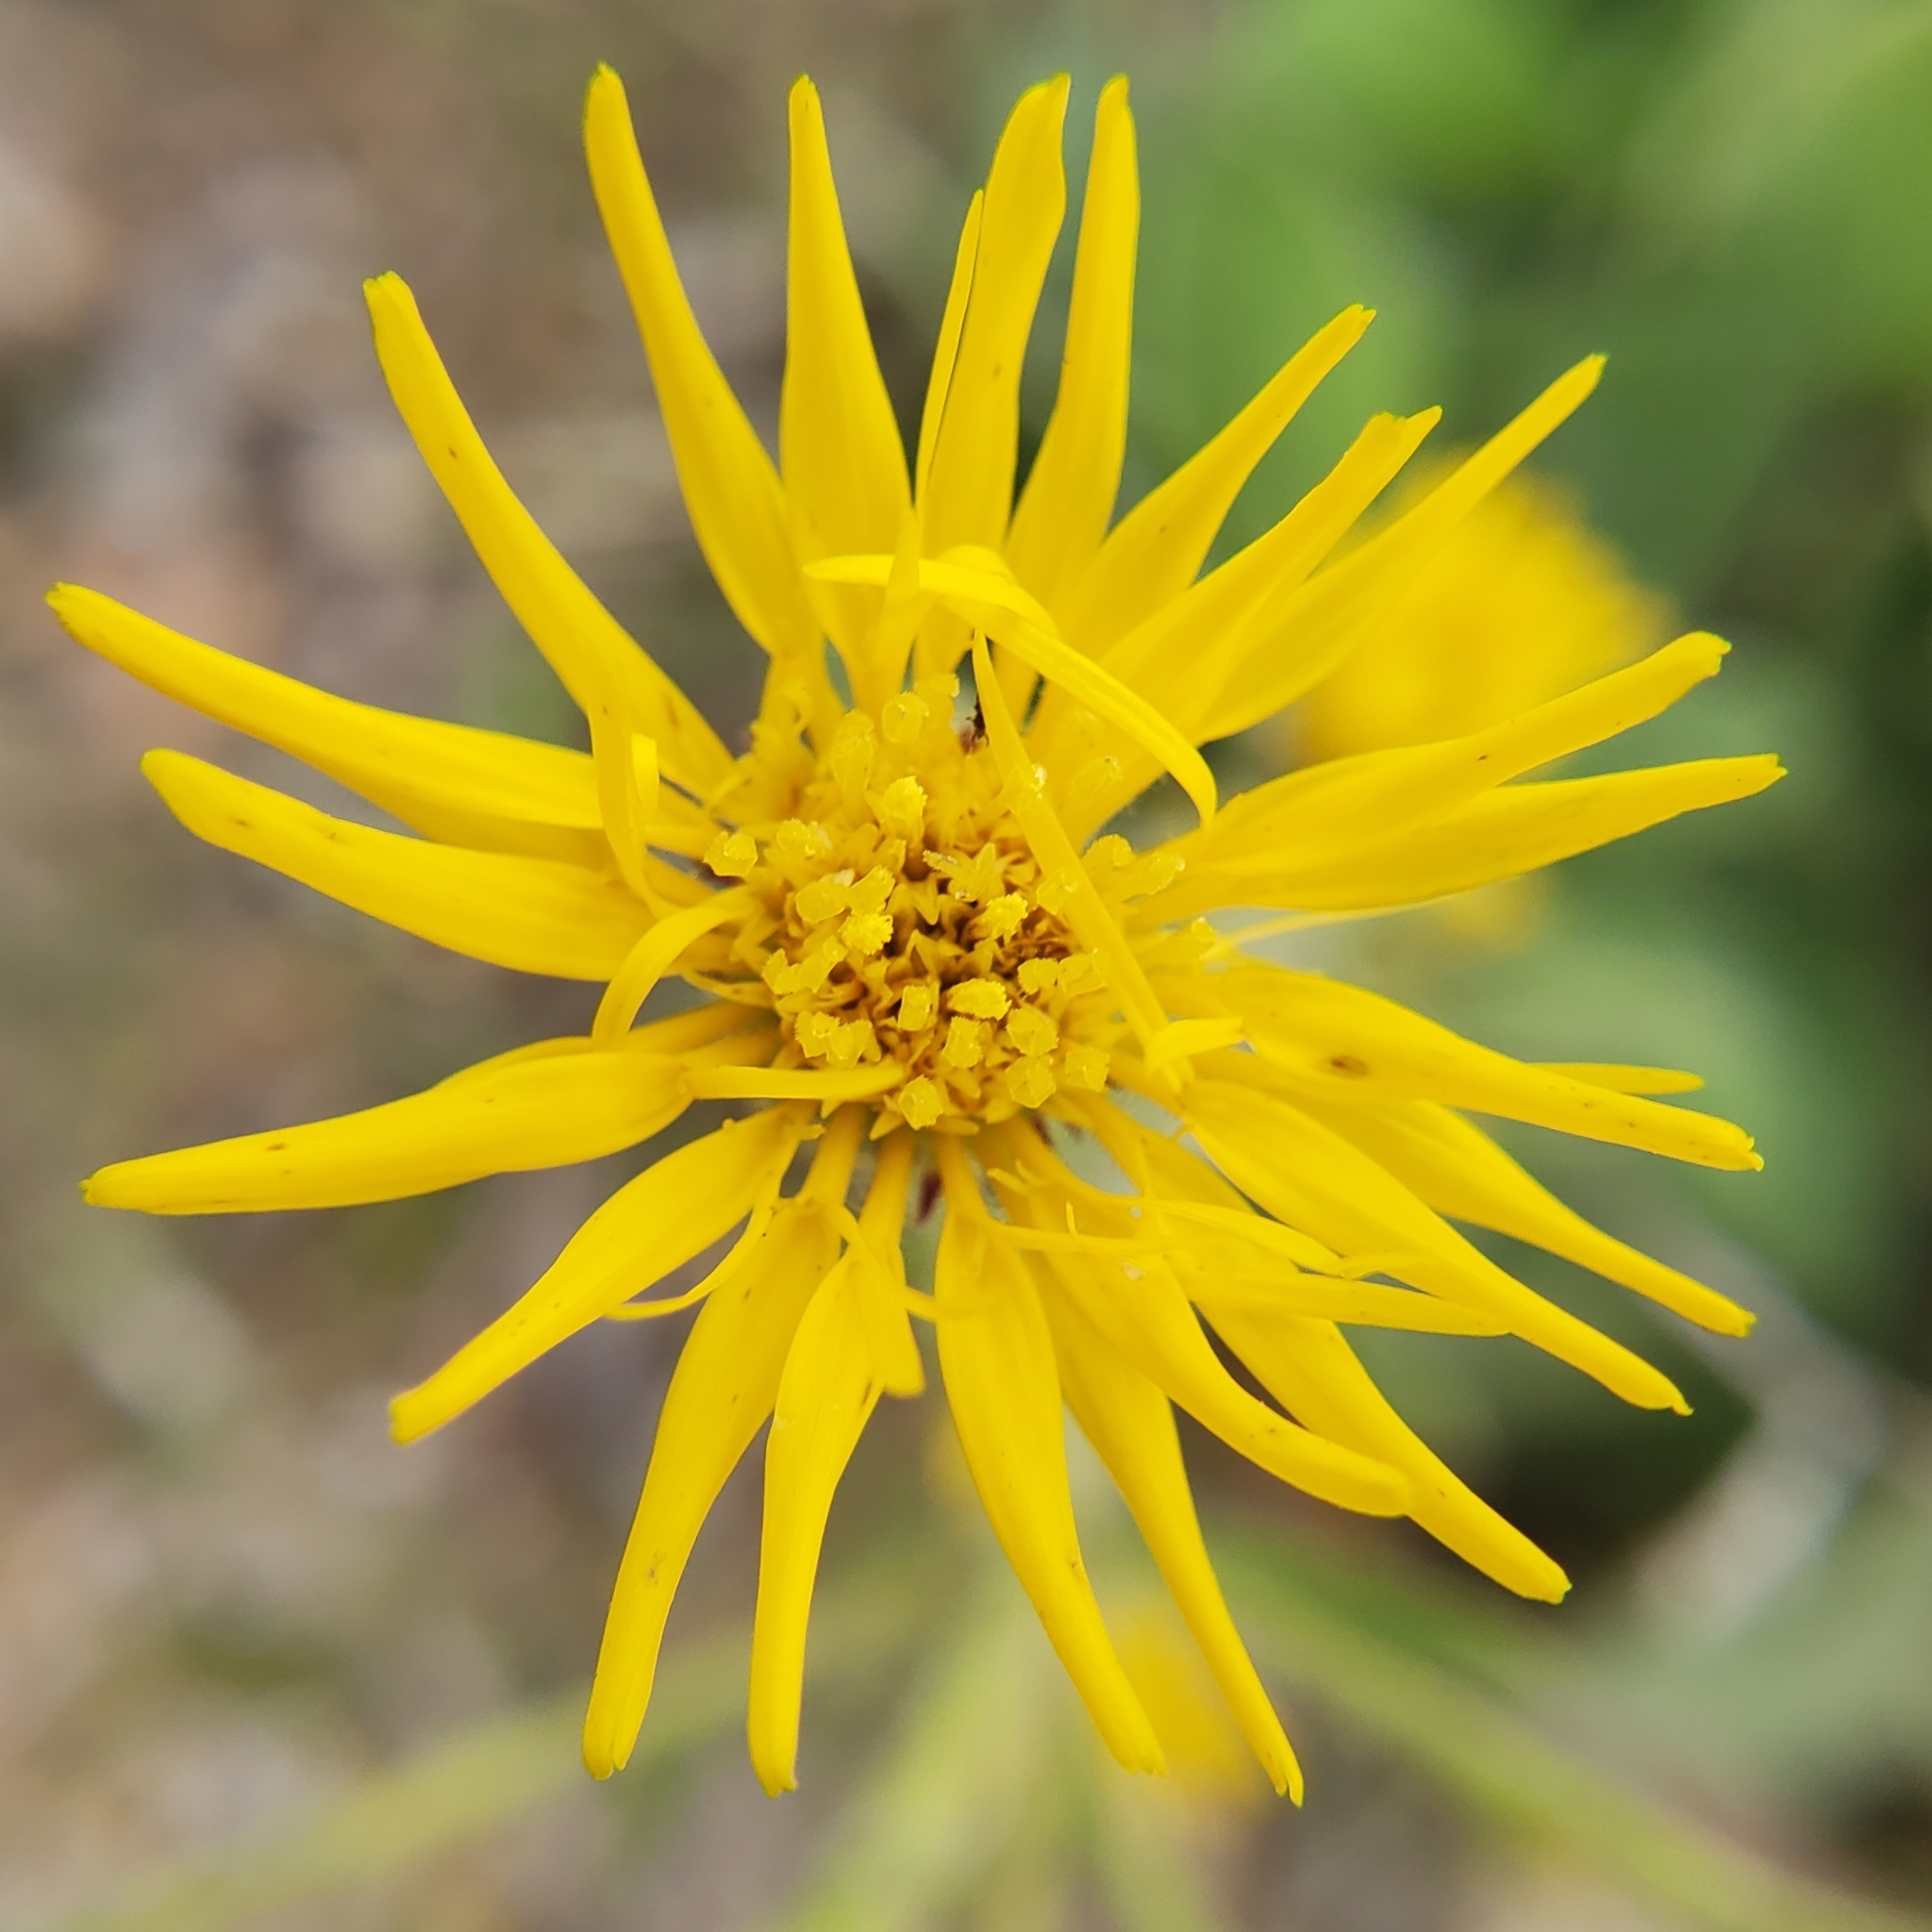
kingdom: Plantae
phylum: Tracheophyta
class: Magnoliopsida
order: Asterales
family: Asteraceae
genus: Heterotheca
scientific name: Heterotheca grandiflora
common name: Telegraphweed
